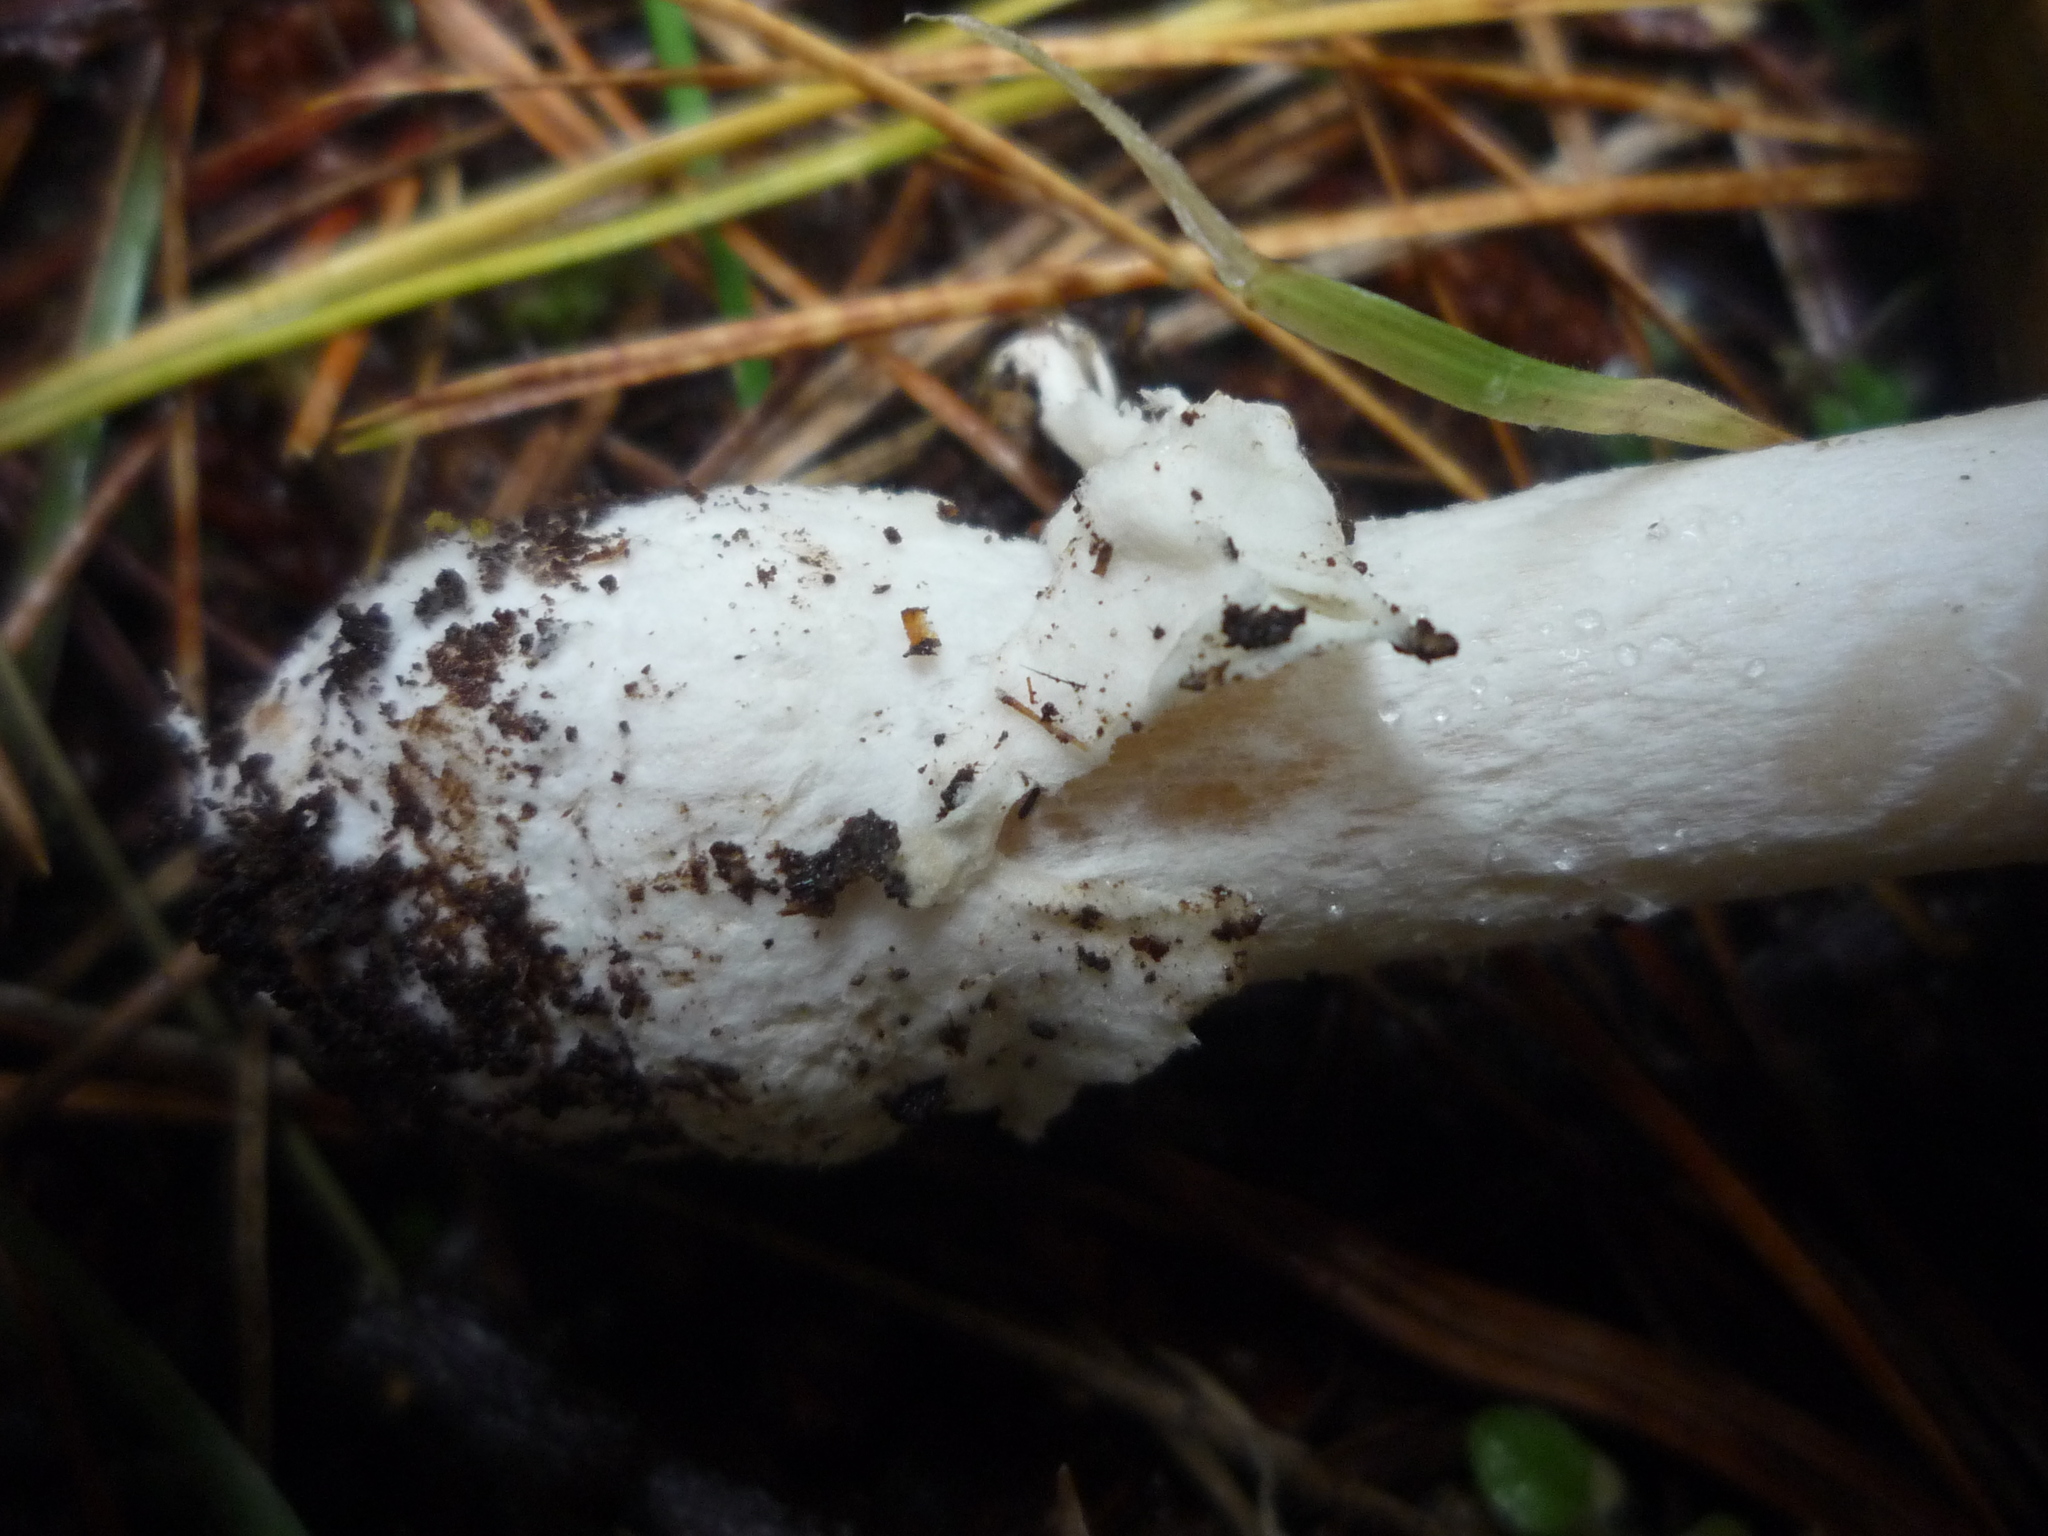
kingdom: Fungi
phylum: Basidiomycota
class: Agaricomycetes
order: Agaricales
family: Amanitaceae
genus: Amanita
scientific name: Amanita gemmata
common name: Jewelled amanita
